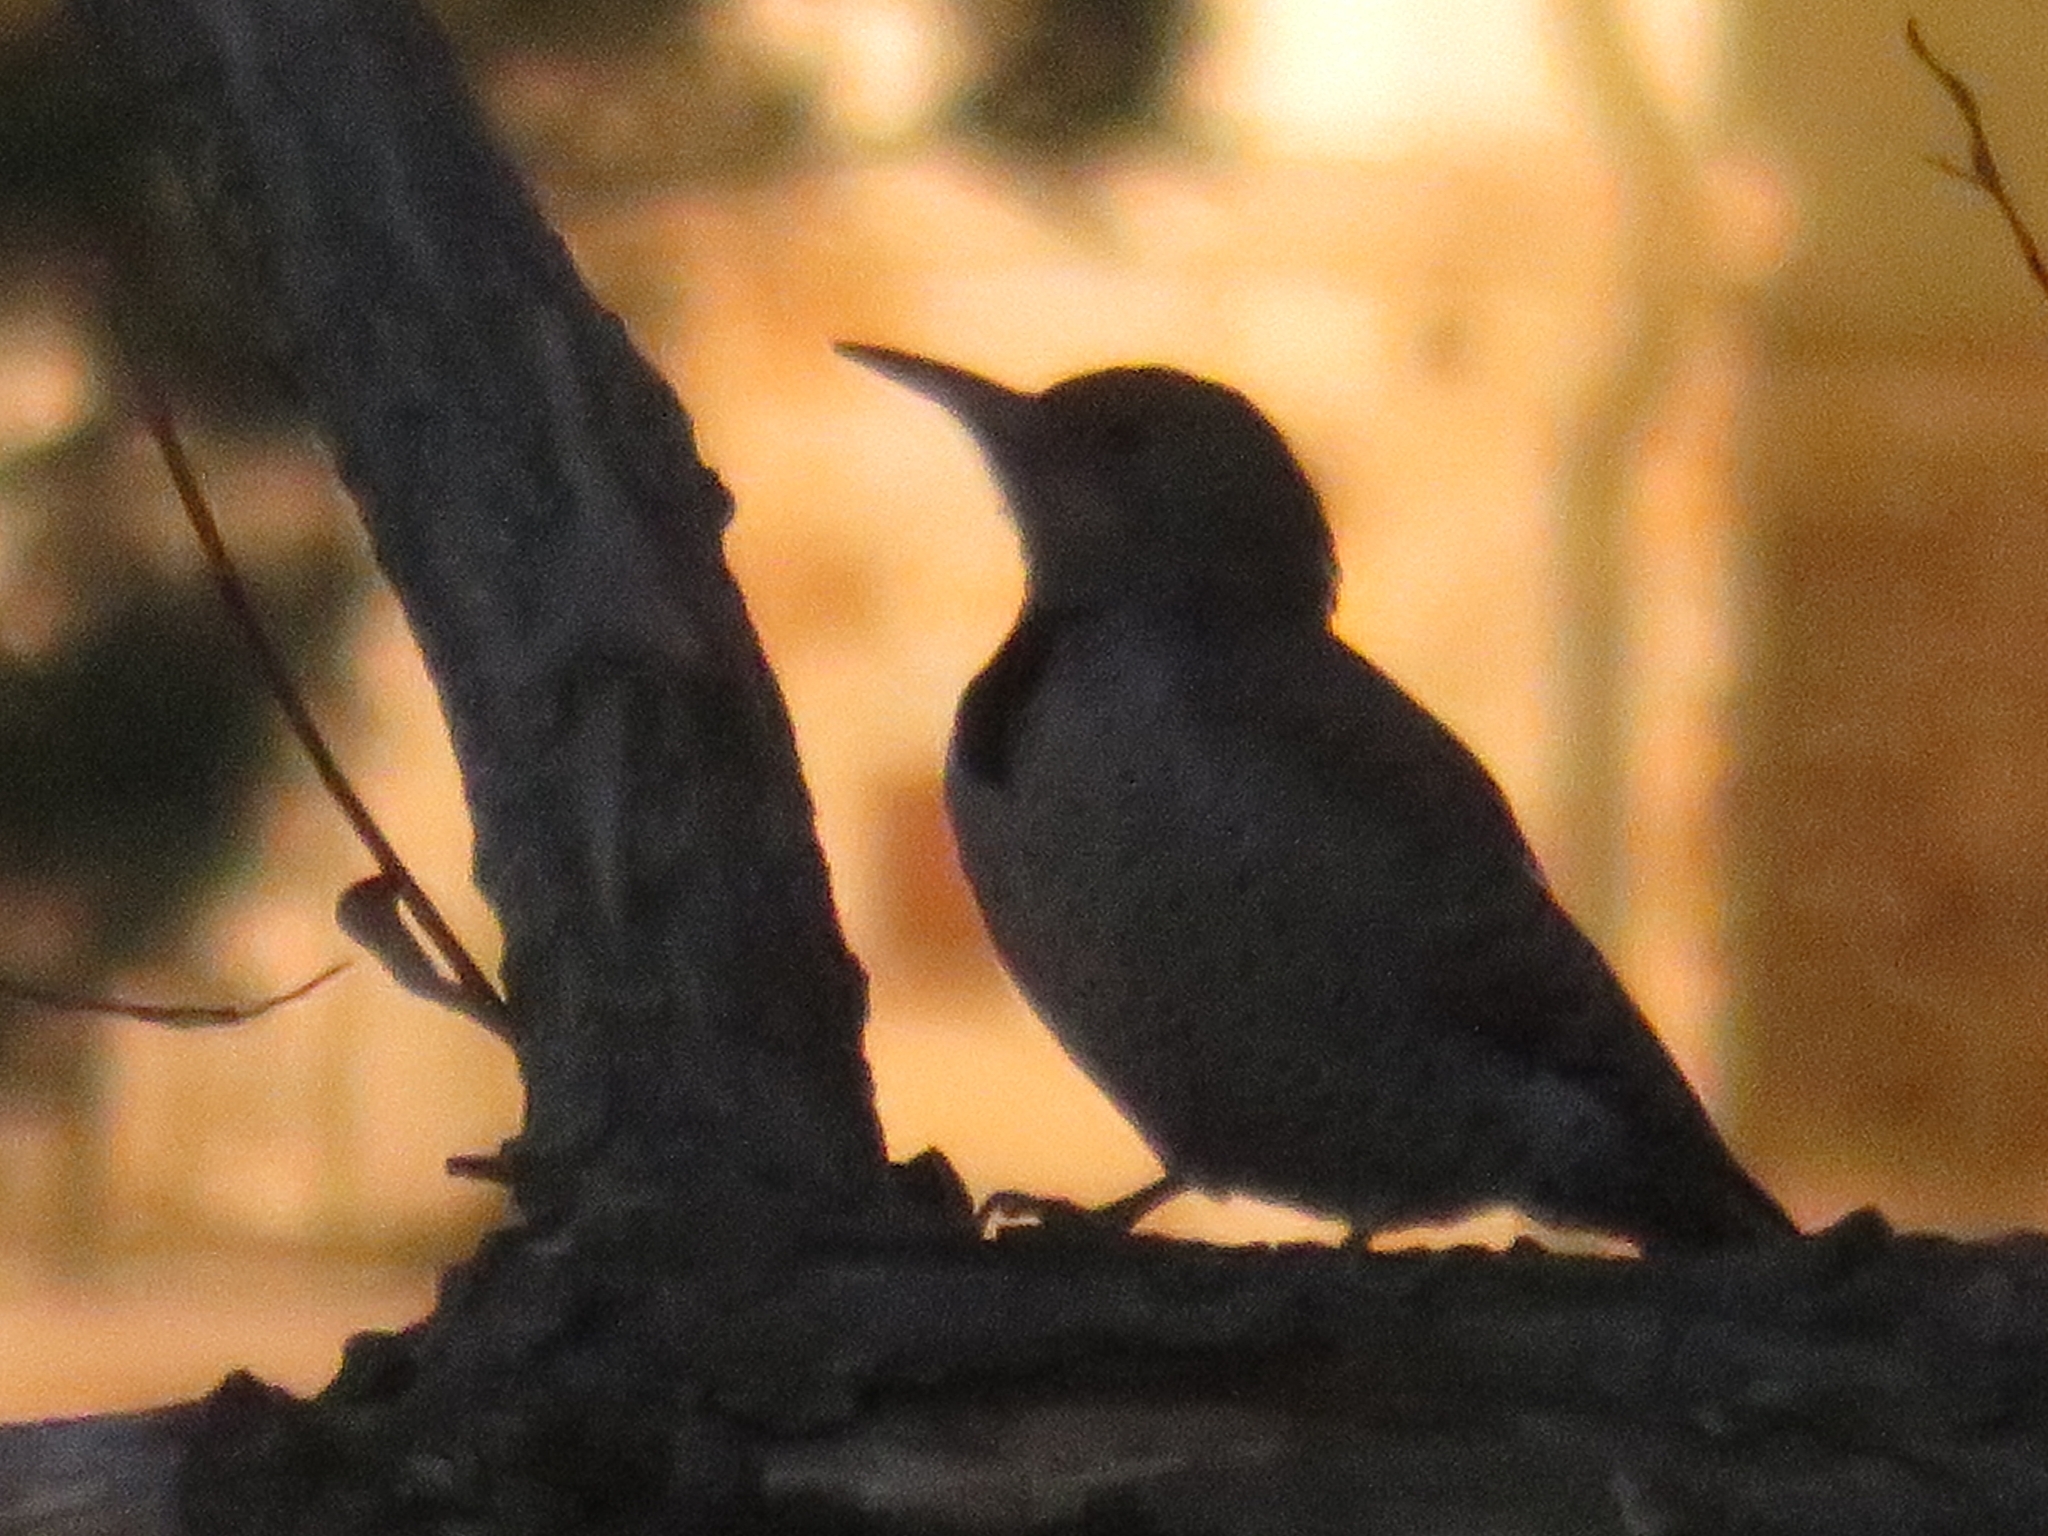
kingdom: Animalia
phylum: Chordata
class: Aves
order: Piciformes
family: Picidae
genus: Colaptes
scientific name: Colaptes auratus
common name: Northern flicker
